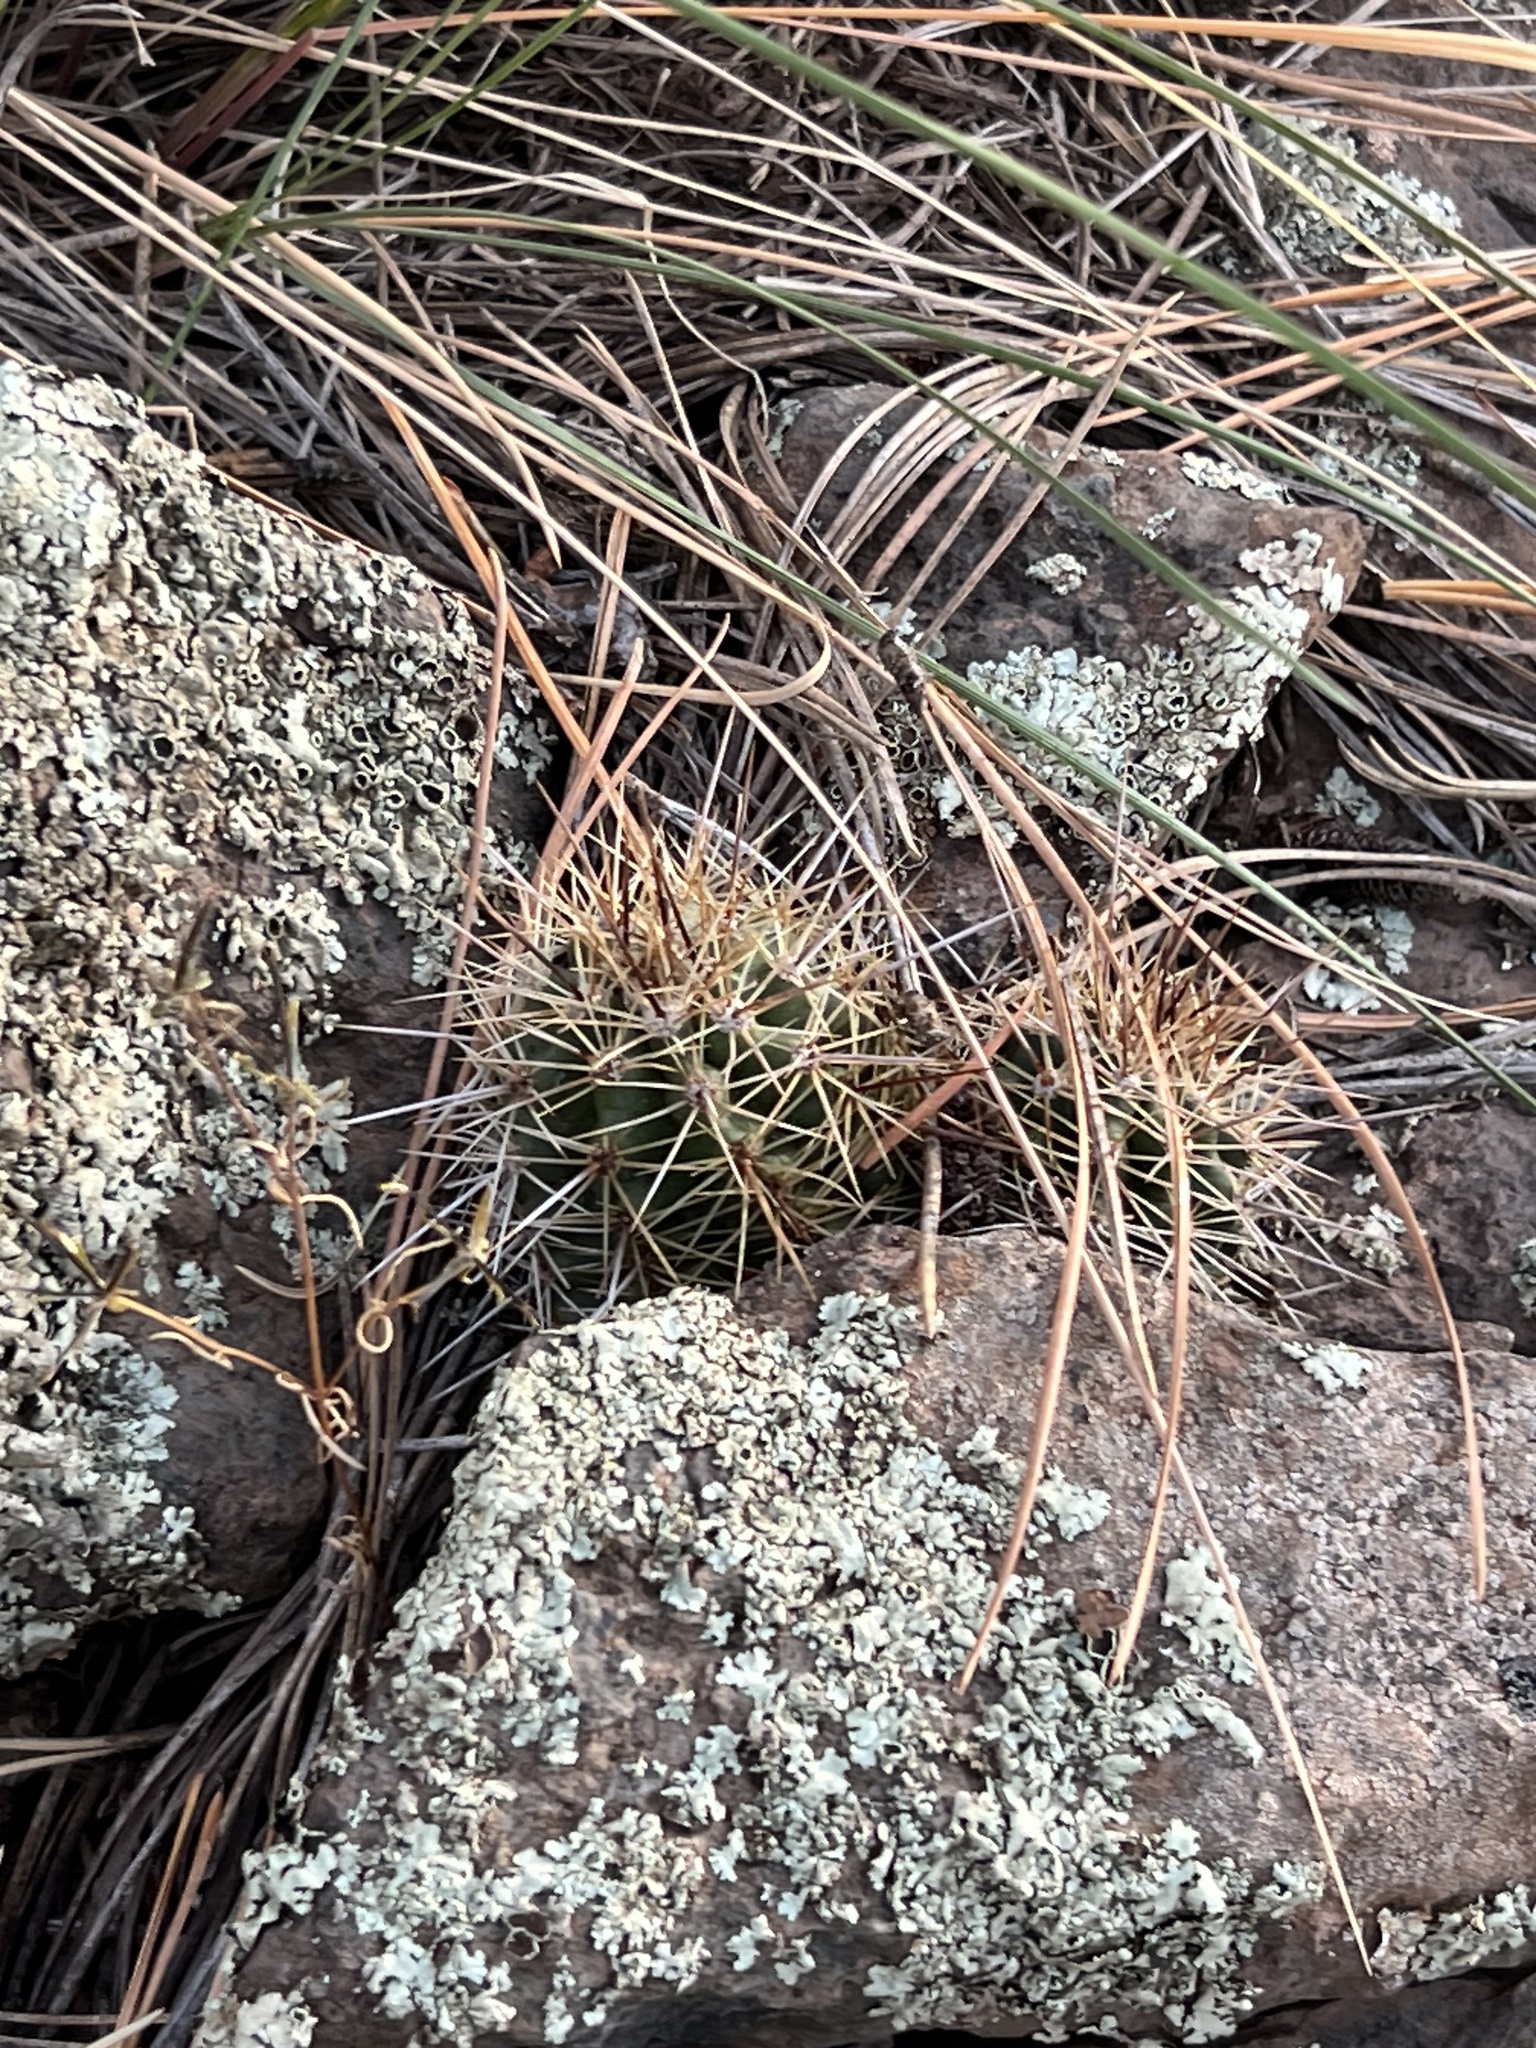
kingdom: Plantae
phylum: Tracheophyta
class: Magnoliopsida
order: Caryophyllales
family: Cactaceae
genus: Echinocereus
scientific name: Echinocereus bakeri
